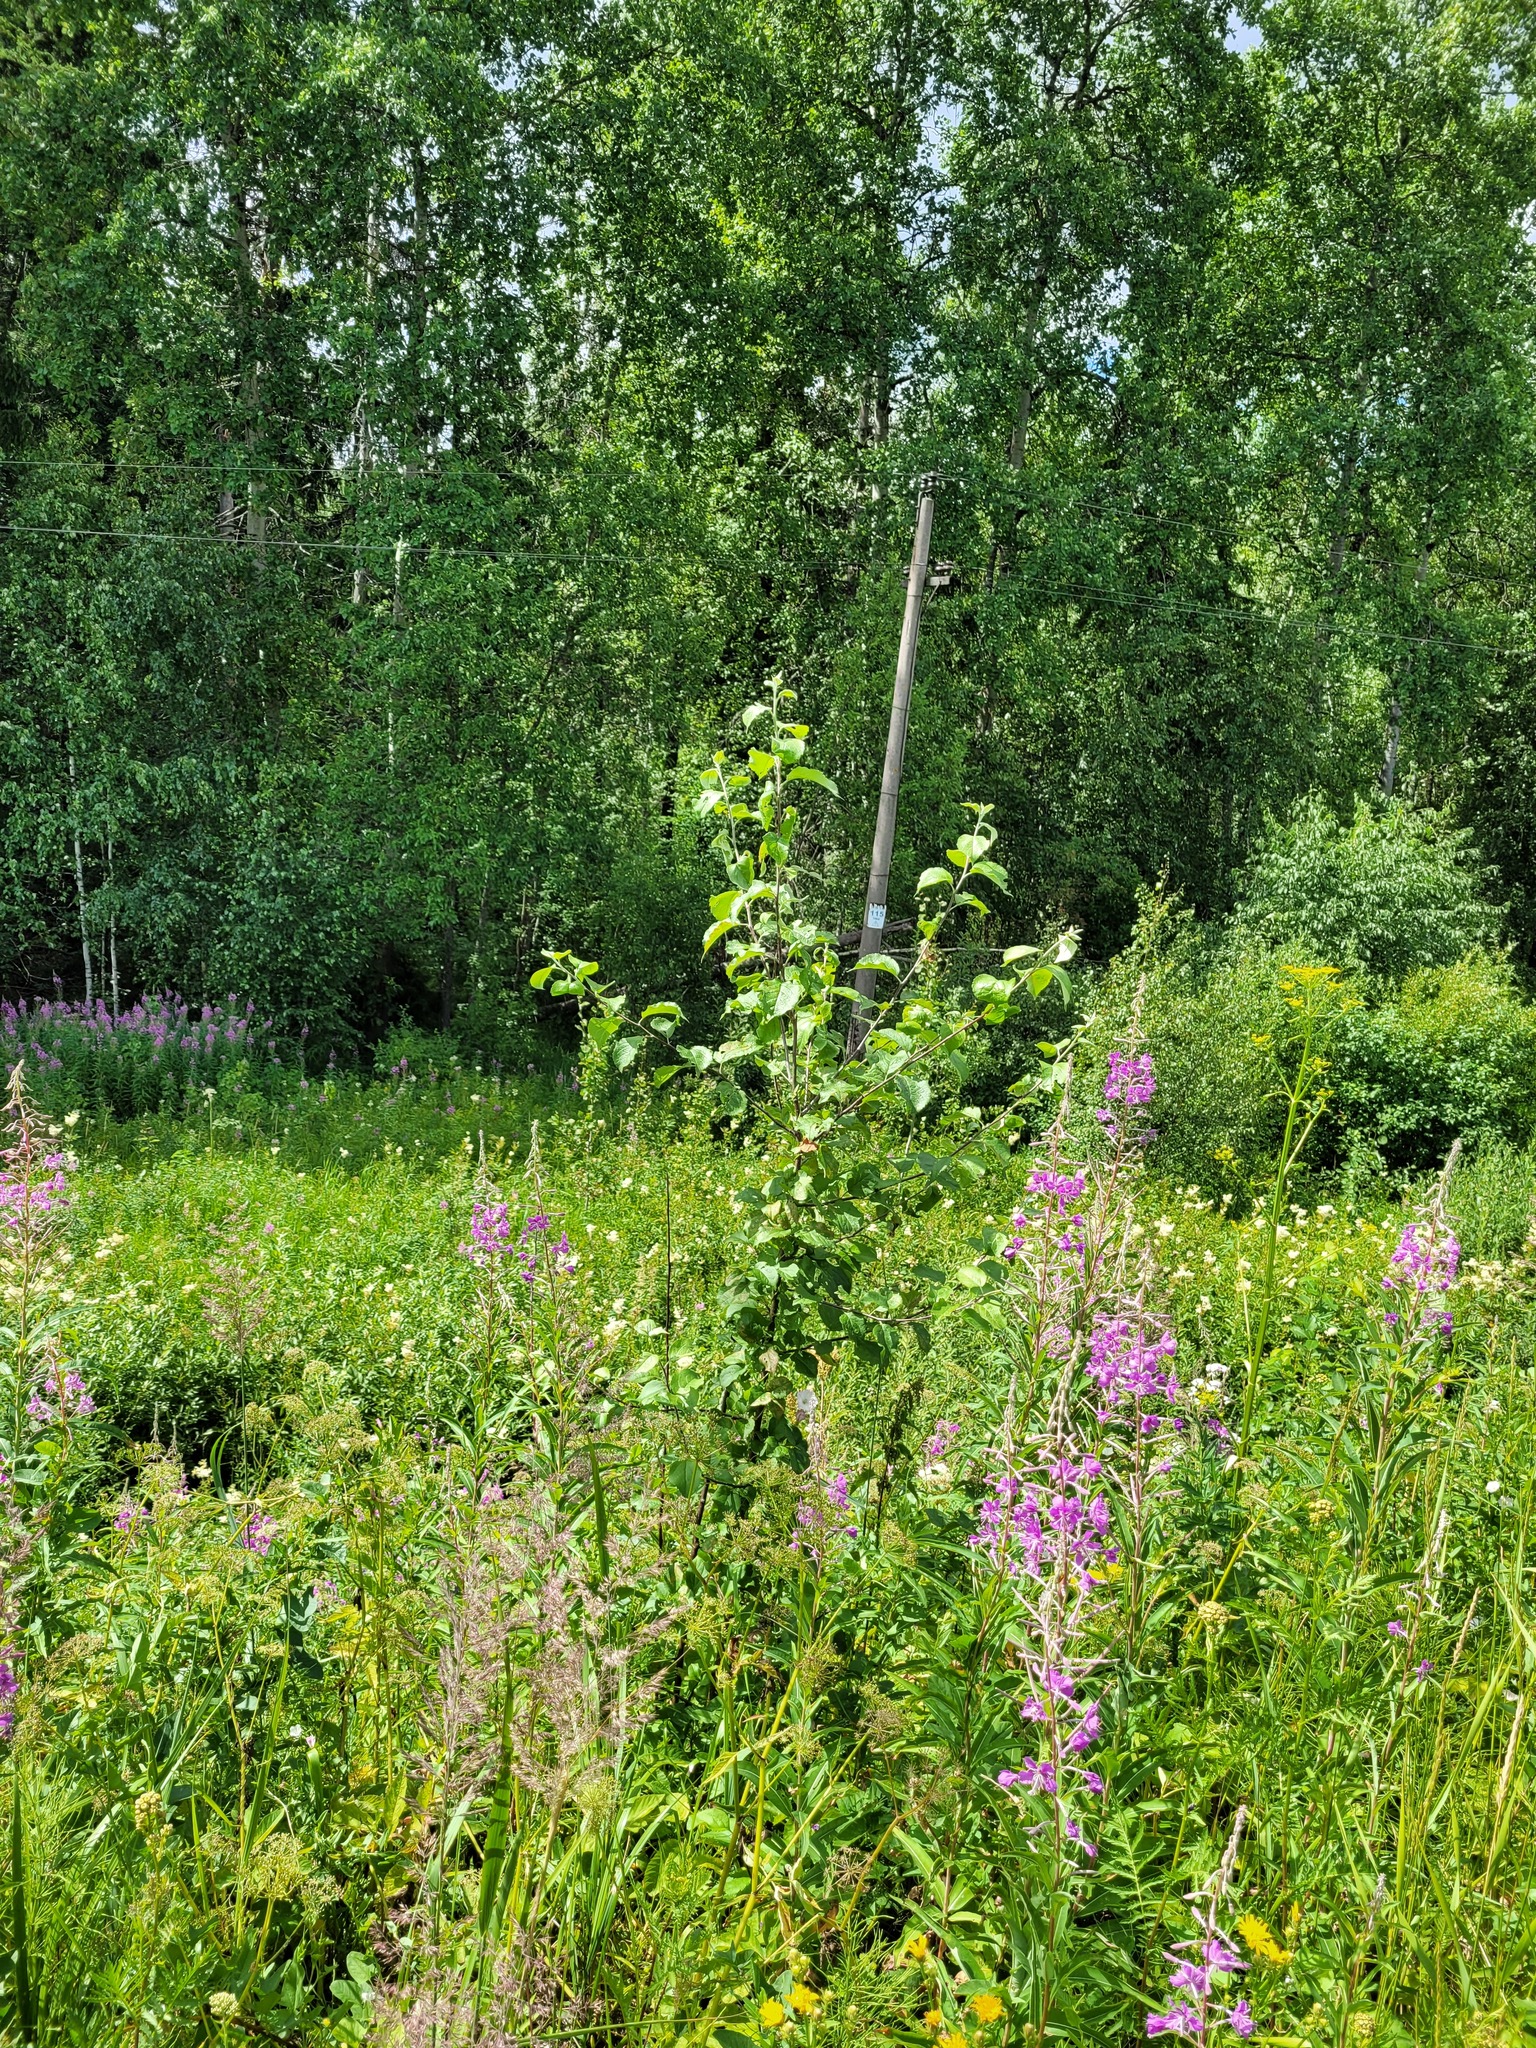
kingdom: Plantae
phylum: Tracheophyta
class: Magnoliopsida
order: Rosales
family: Rosaceae
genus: Malus
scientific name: Malus domestica
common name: Apple
